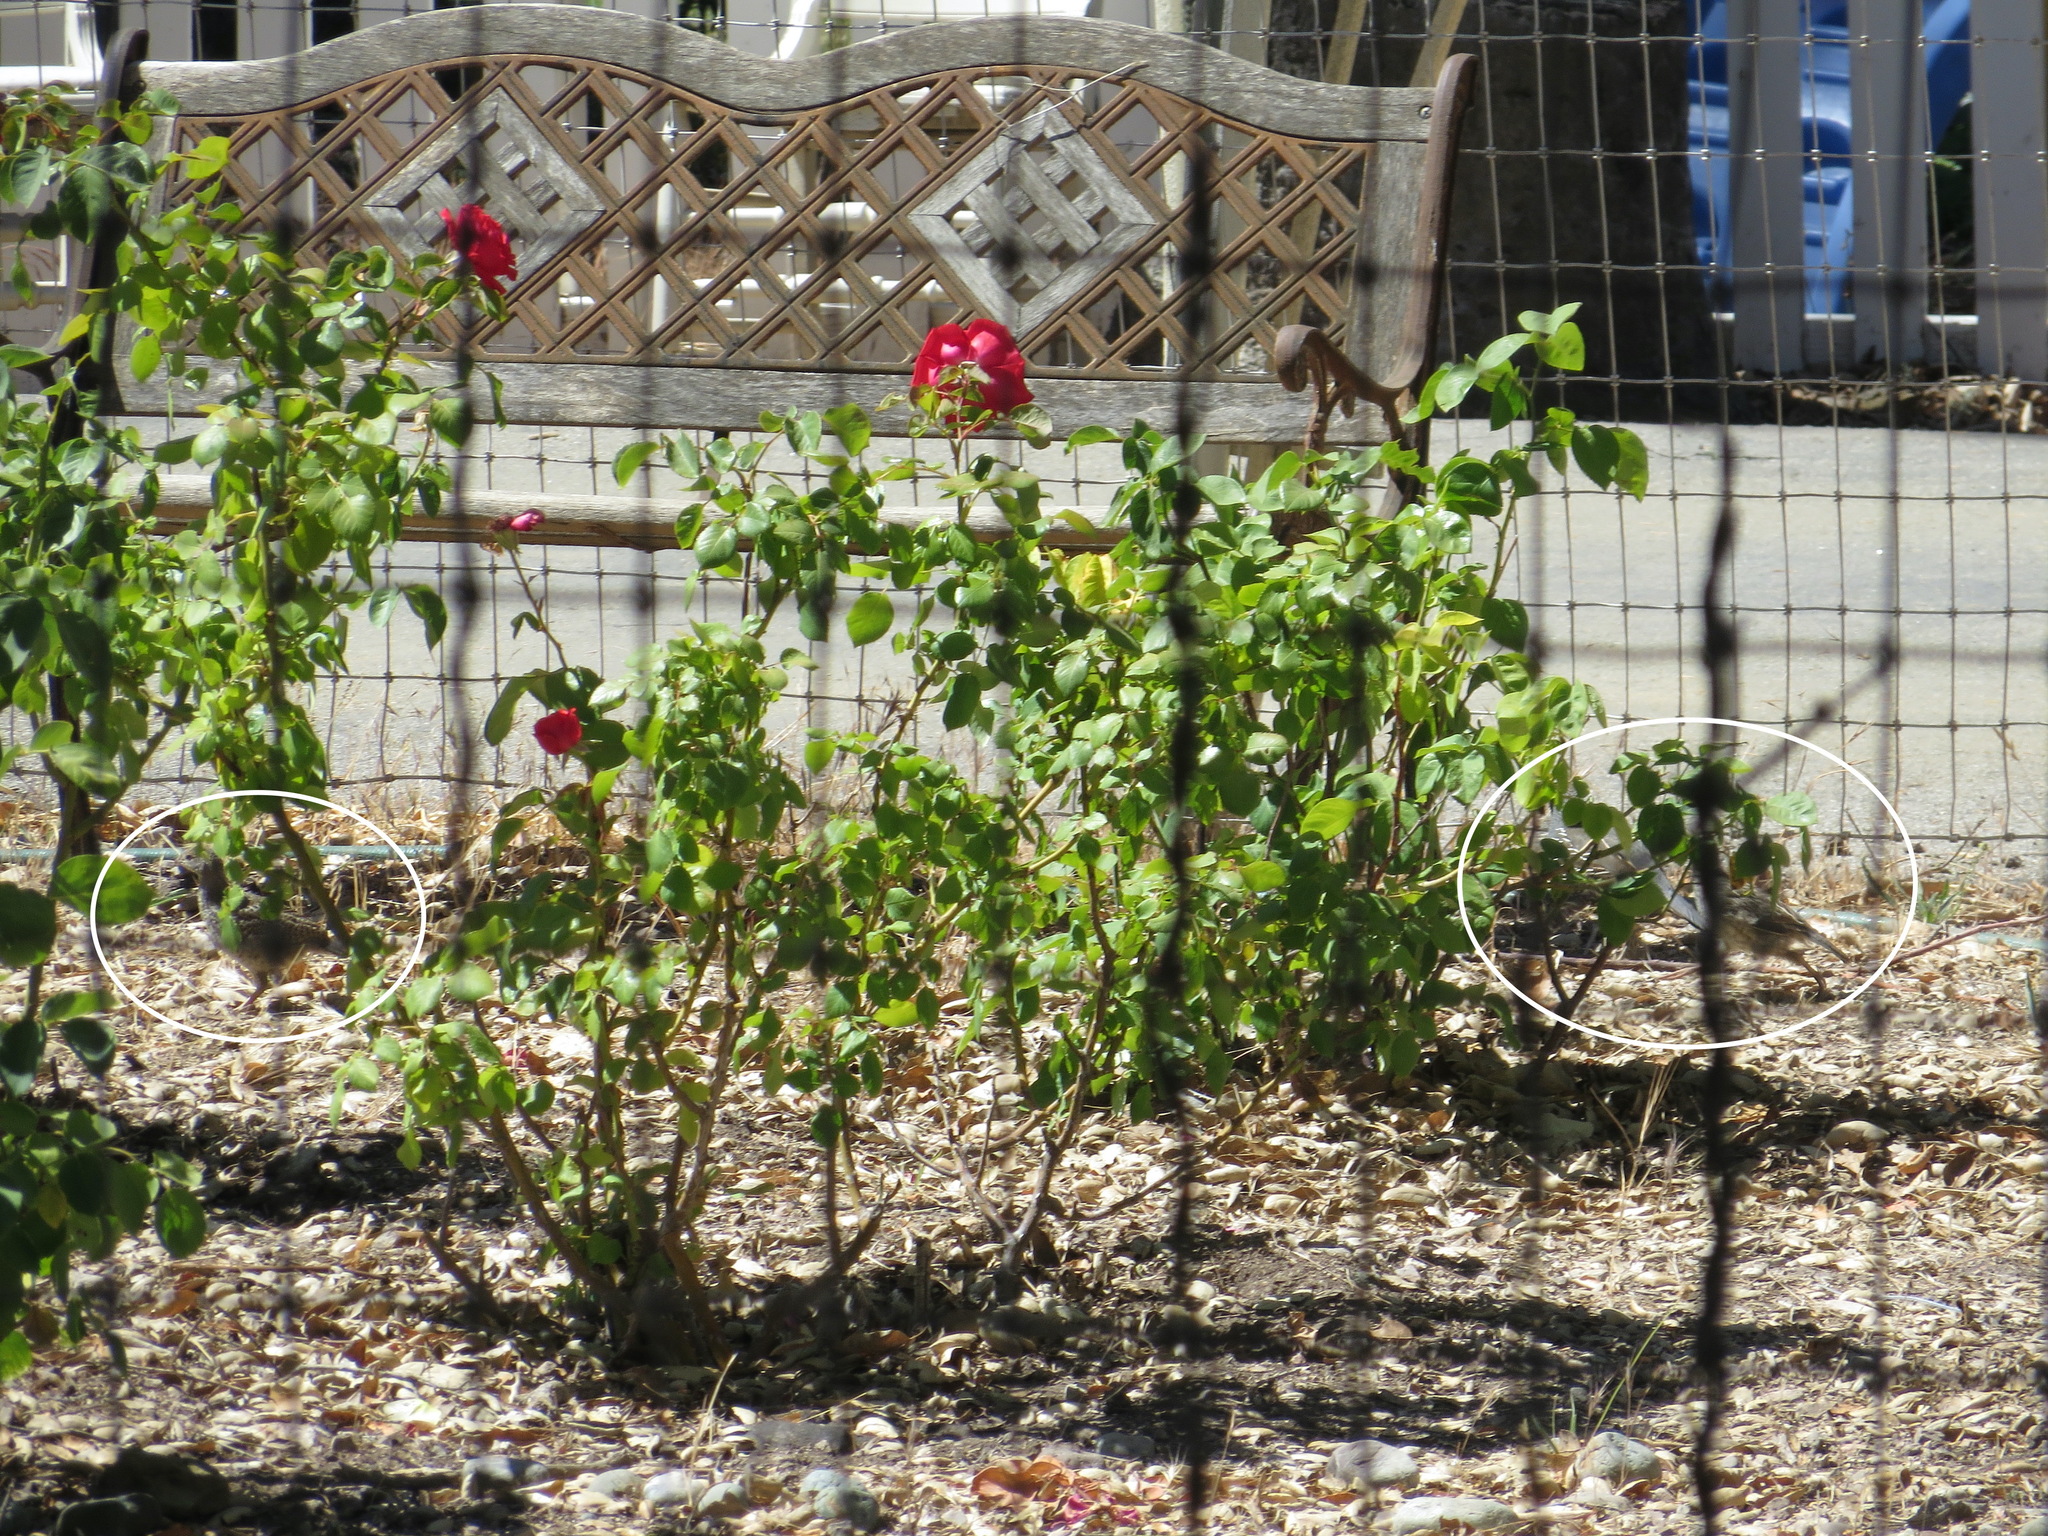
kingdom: Animalia
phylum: Chordata
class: Aves
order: Galliformes
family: Odontophoridae
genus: Callipepla
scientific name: Callipepla californica
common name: California quail
